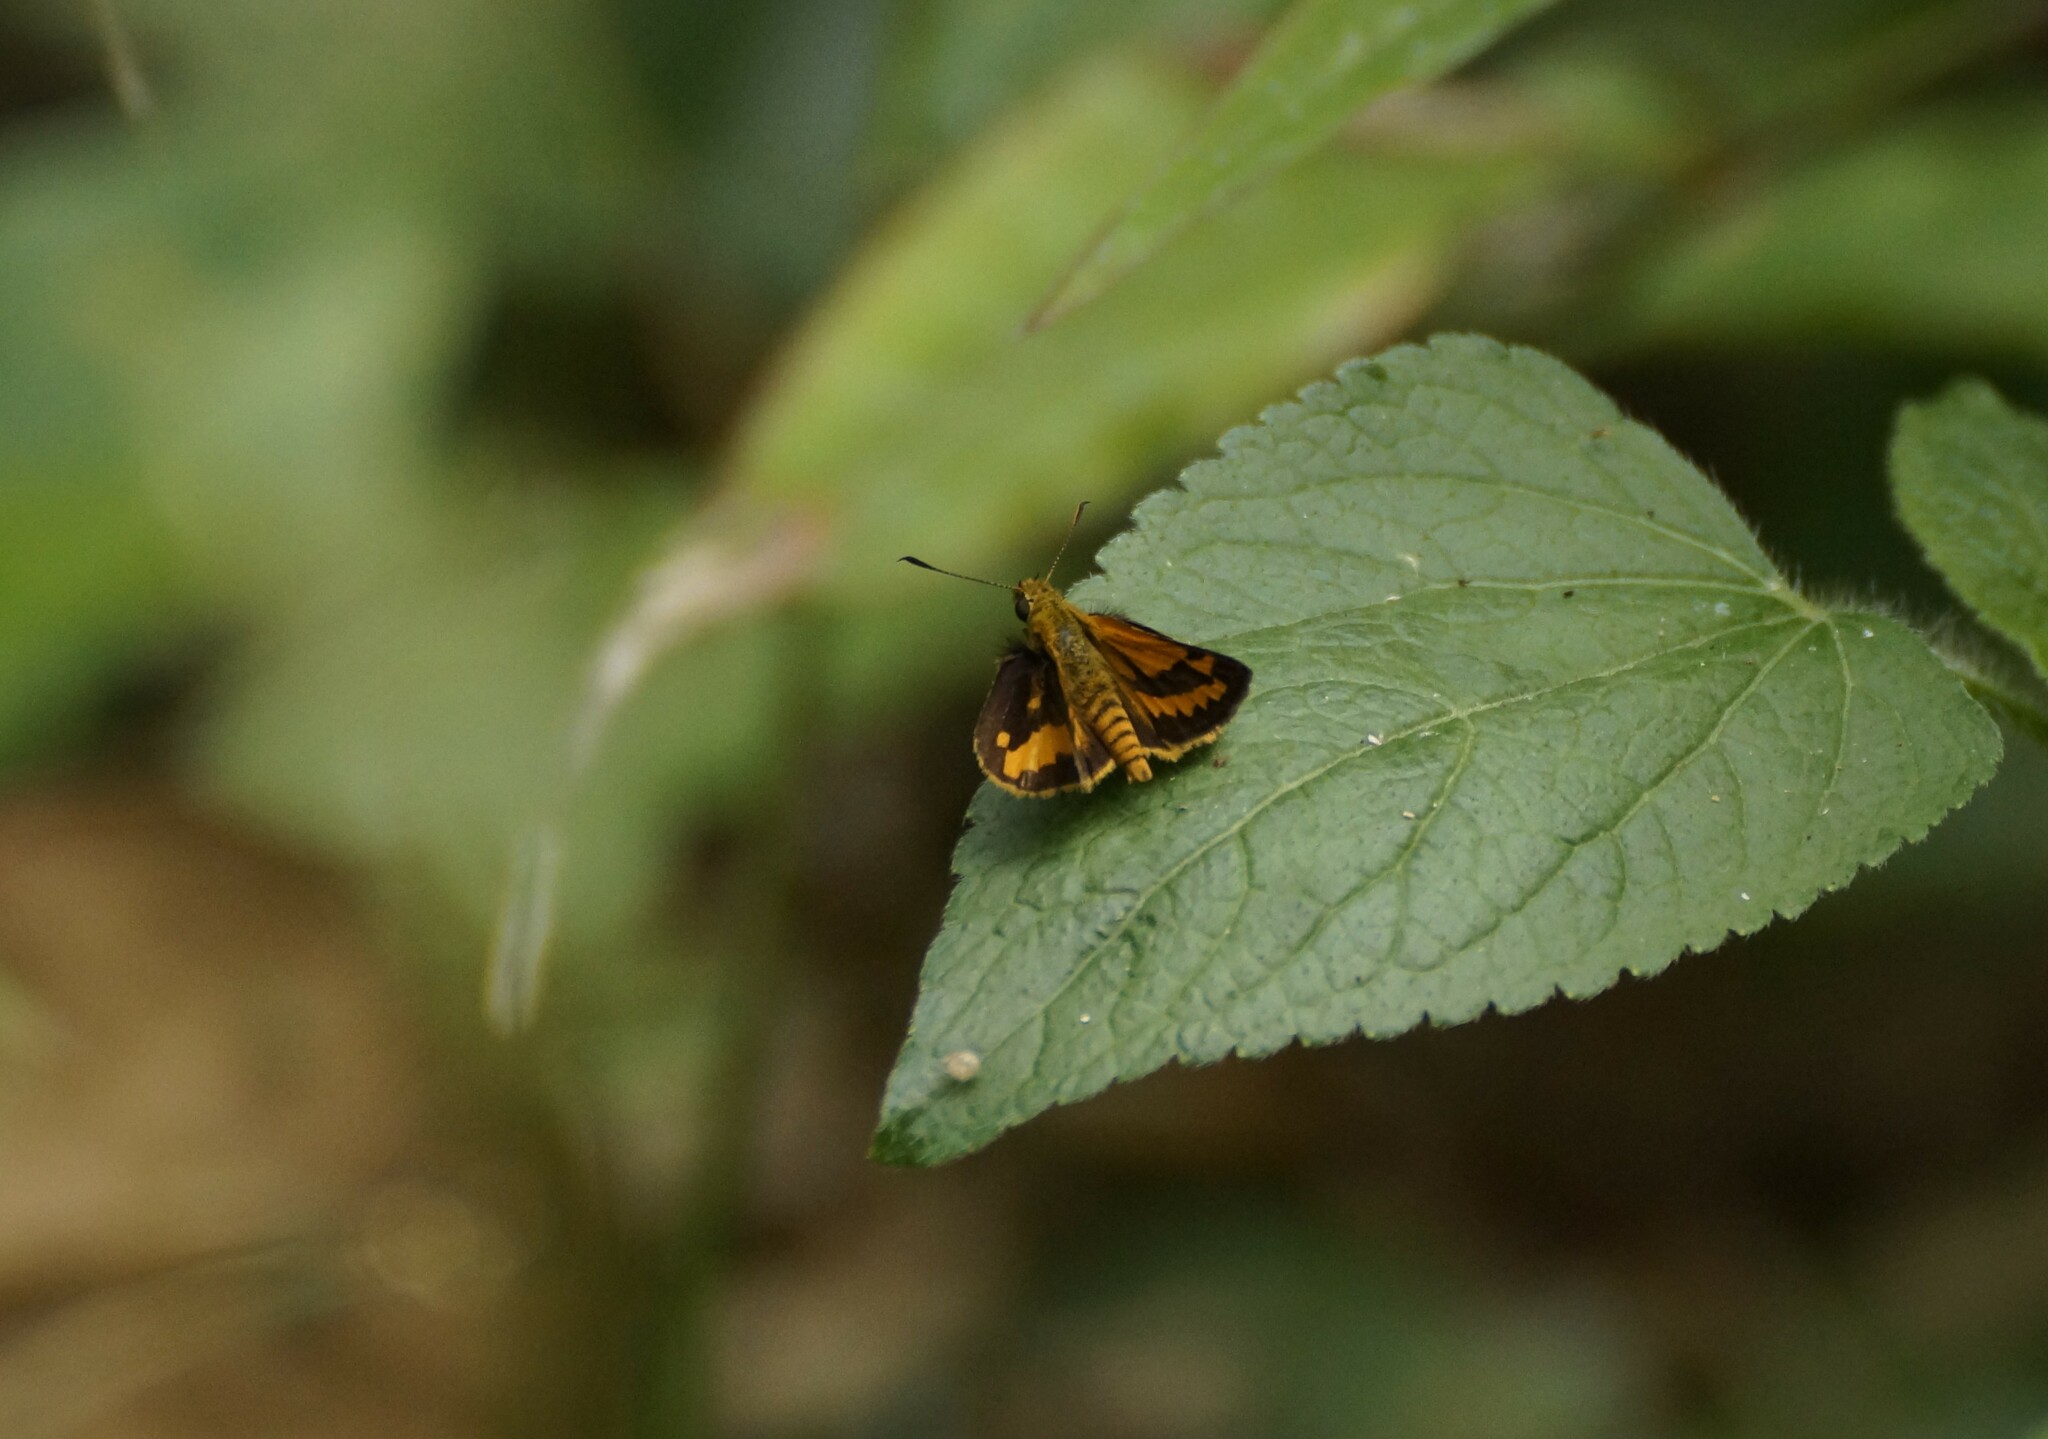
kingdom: Animalia
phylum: Arthropoda
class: Insecta
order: Lepidoptera
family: Hesperiidae
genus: Suniana
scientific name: Suniana sunias
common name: Wide-brand grass-dart
